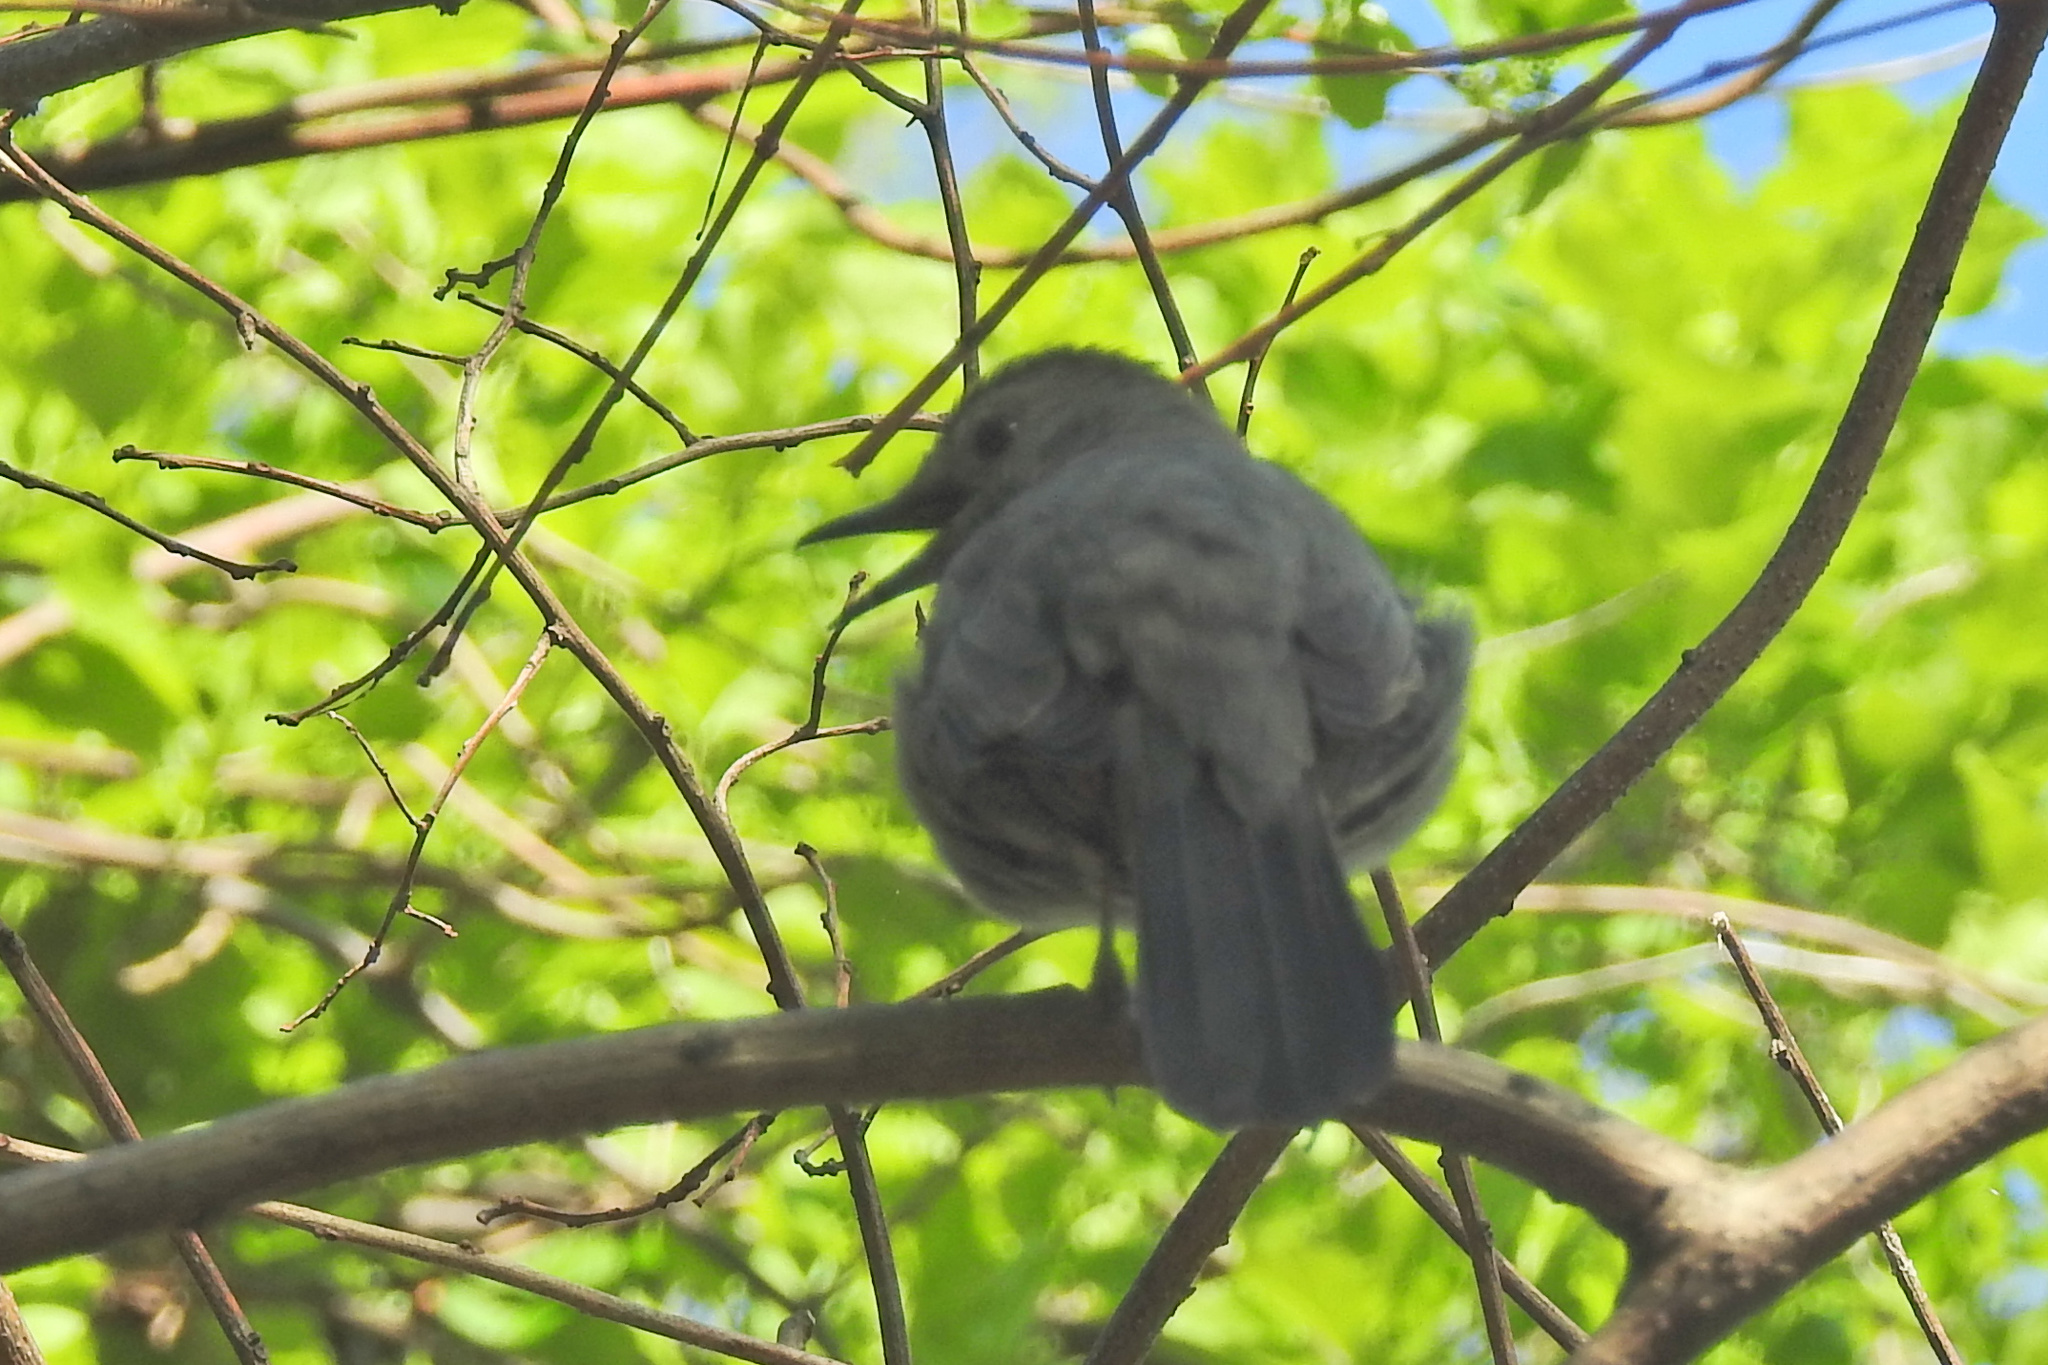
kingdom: Animalia
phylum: Chordata
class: Aves
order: Passeriformes
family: Mimidae
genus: Dumetella
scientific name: Dumetella carolinensis
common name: Gray catbird
